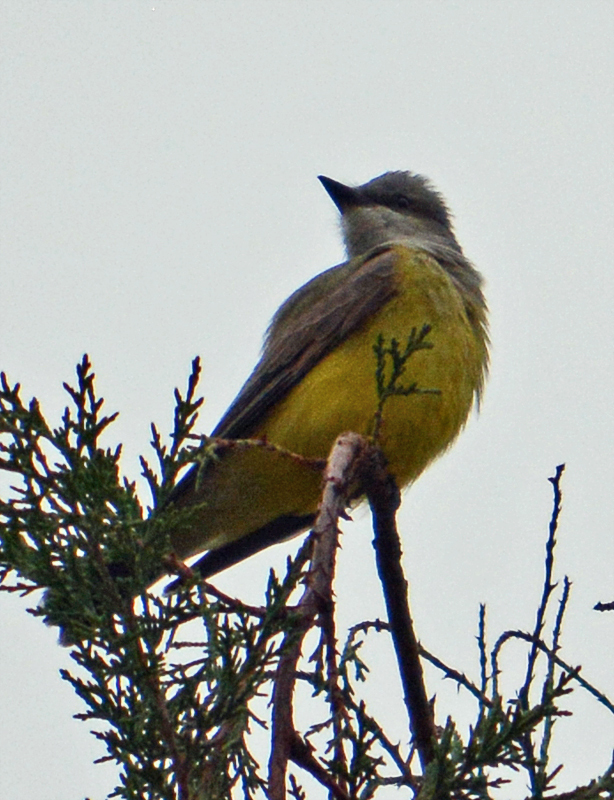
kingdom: Animalia
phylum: Chordata
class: Aves
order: Passeriformes
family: Tyrannidae
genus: Tyrannus
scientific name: Tyrannus vociferans
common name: Cassin's kingbird
